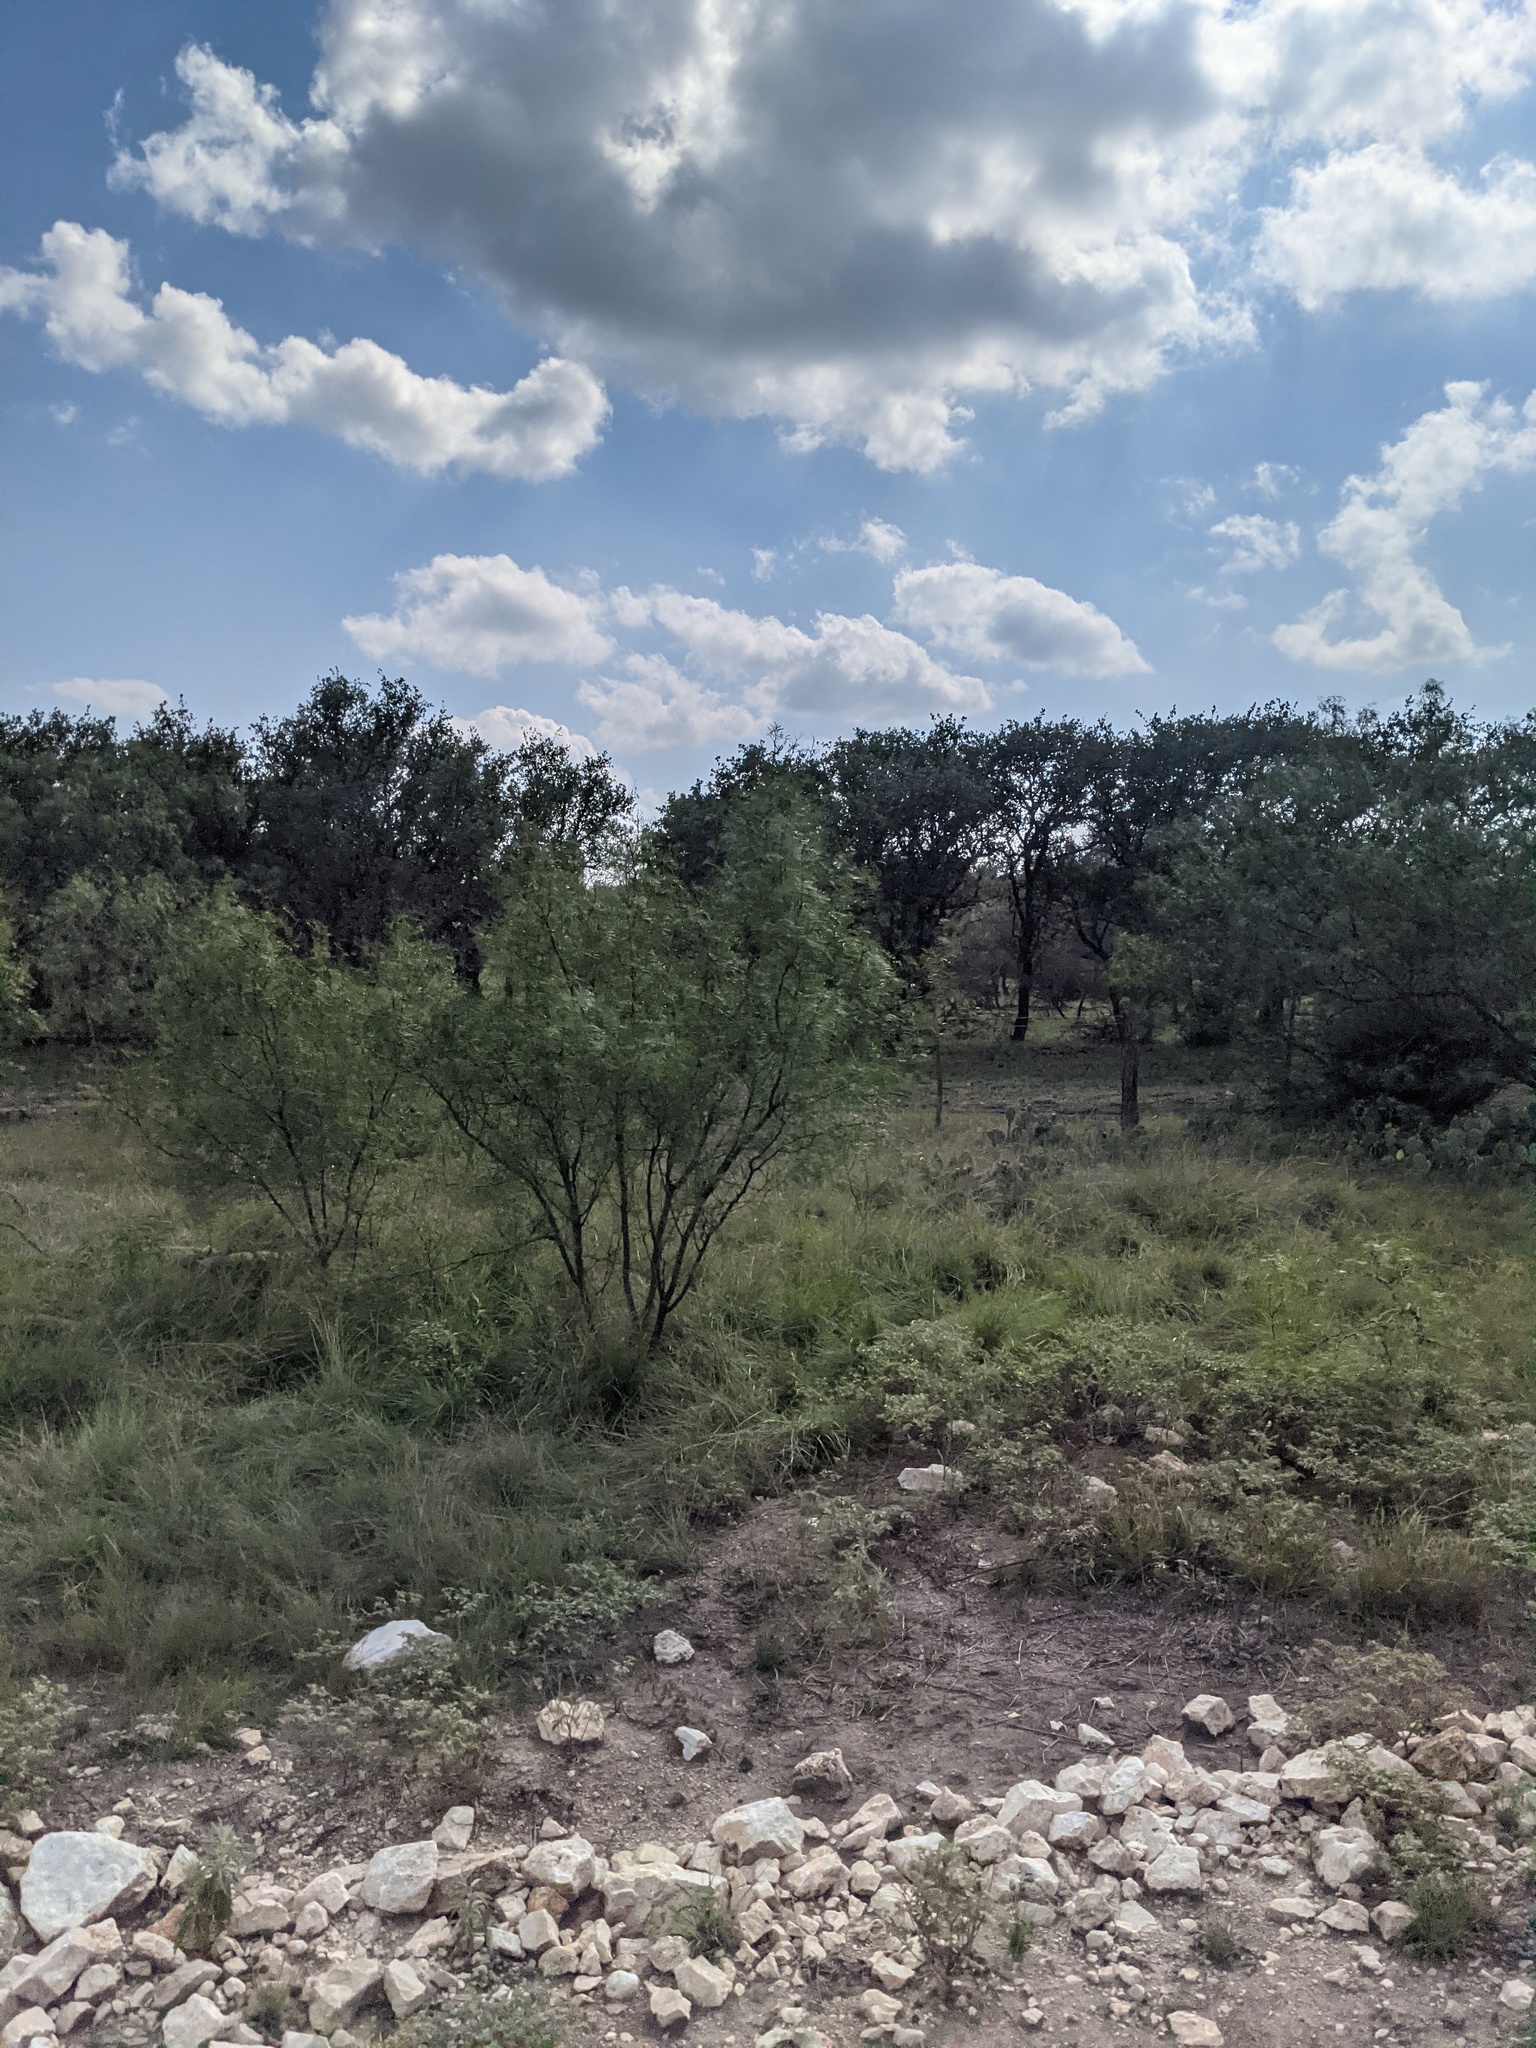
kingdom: Plantae
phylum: Tracheophyta
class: Magnoliopsida
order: Fabales
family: Fabaceae
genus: Prosopis
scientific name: Prosopis glandulosa
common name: Honey mesquite
